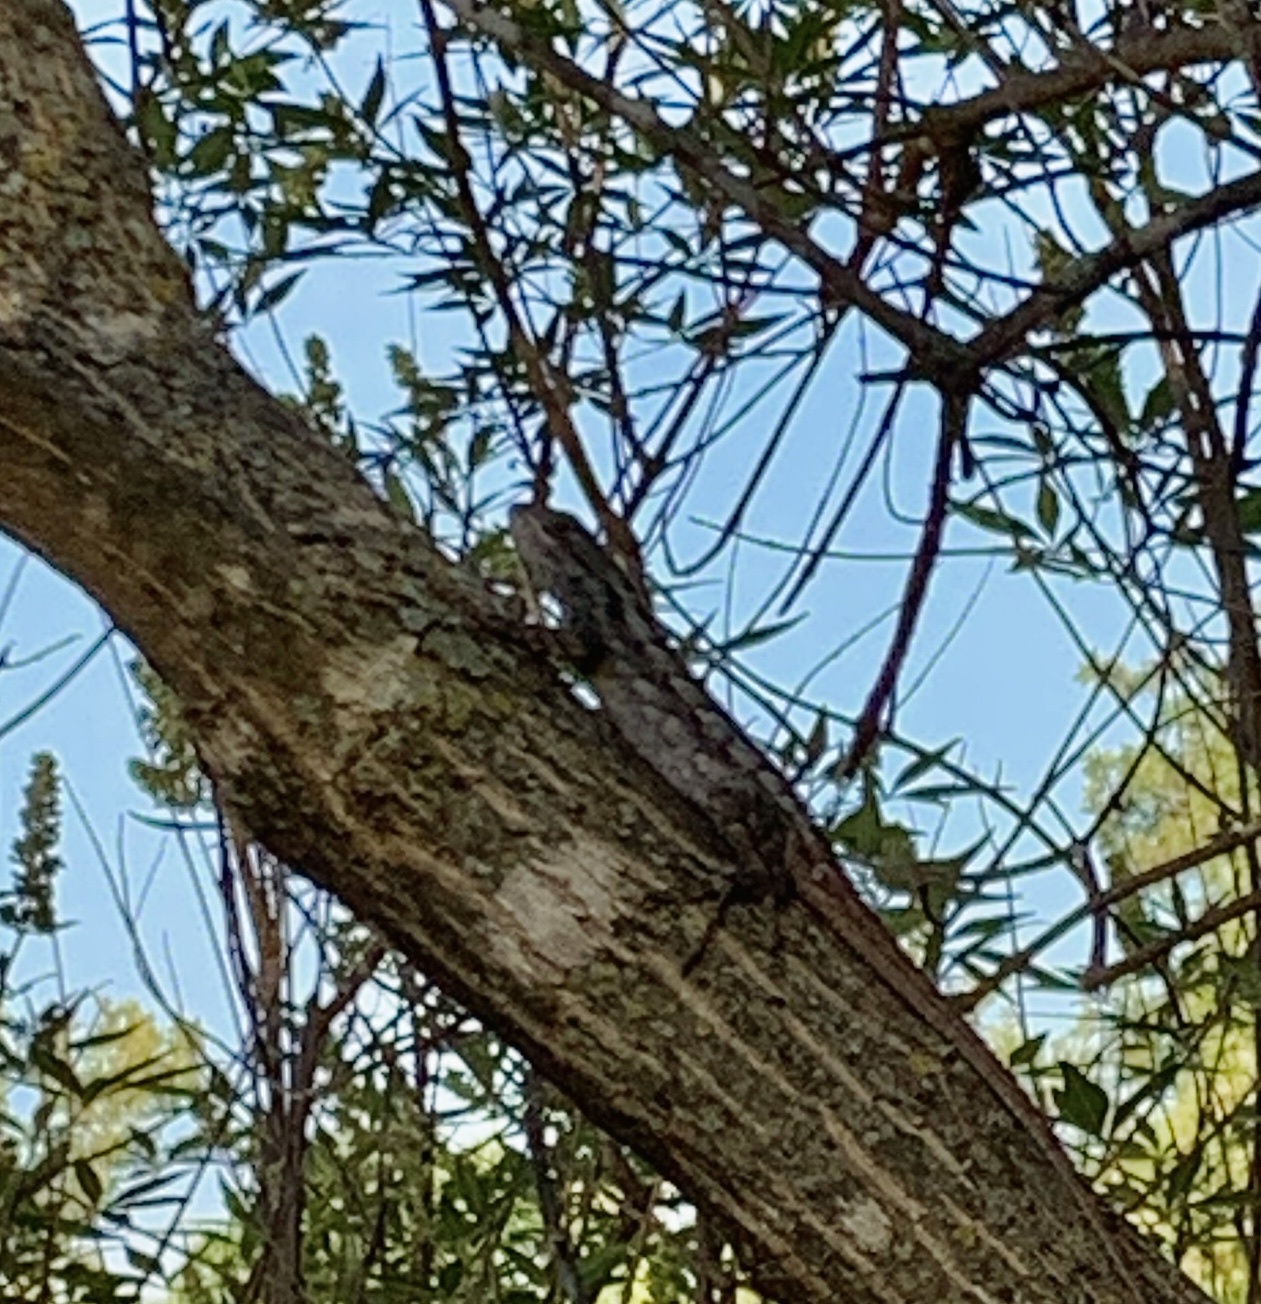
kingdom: Animalia
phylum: Chordata
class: Squamata
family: Phrynosomatidae
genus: Sceloporus
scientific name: Sceloporus olivaceus
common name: Texas spiny lizard
